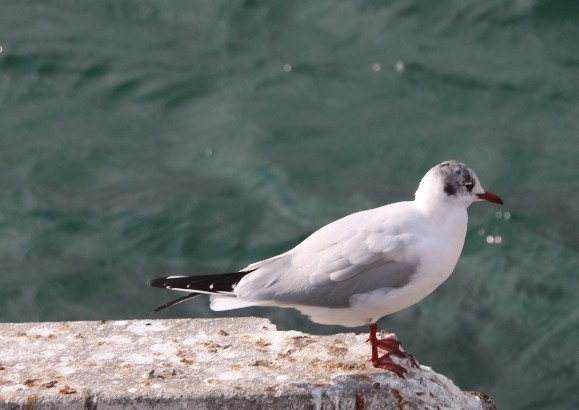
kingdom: Animalia
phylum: Chordata
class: Aves
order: Charadriiformes
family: Laridae
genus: Chroicocephalus
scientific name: Chroicocephalus ridibundus
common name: Black-headed gull
